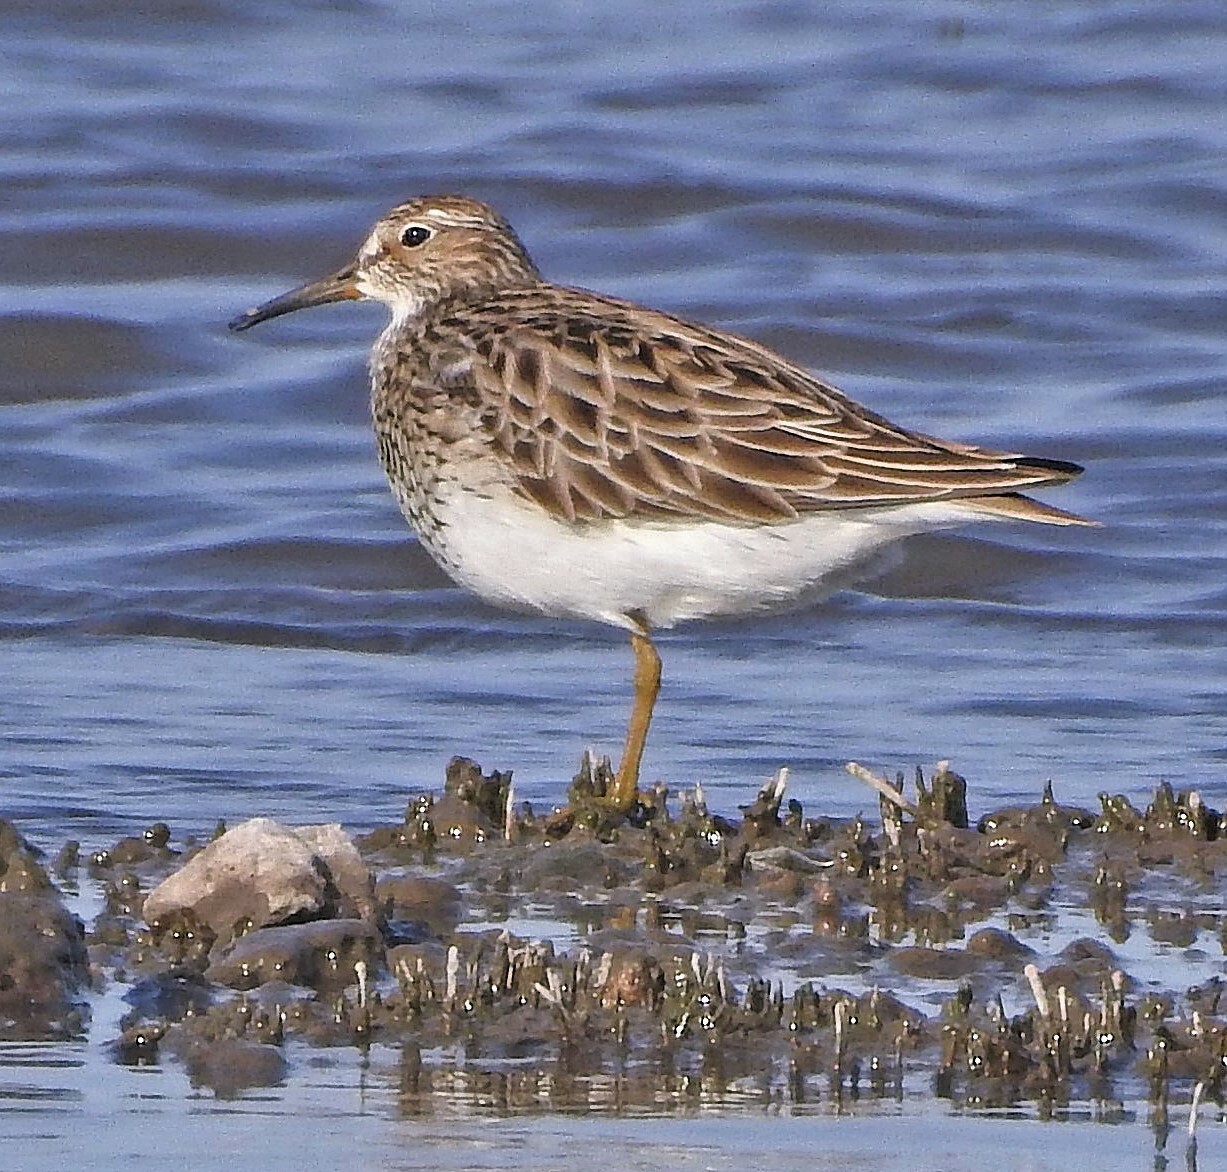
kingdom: Animalia
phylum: Chordata
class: Aves
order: Charadriiformes
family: Scolopacidae
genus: Calidris
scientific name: Calidris melanotos
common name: Pectoral sandpiper
